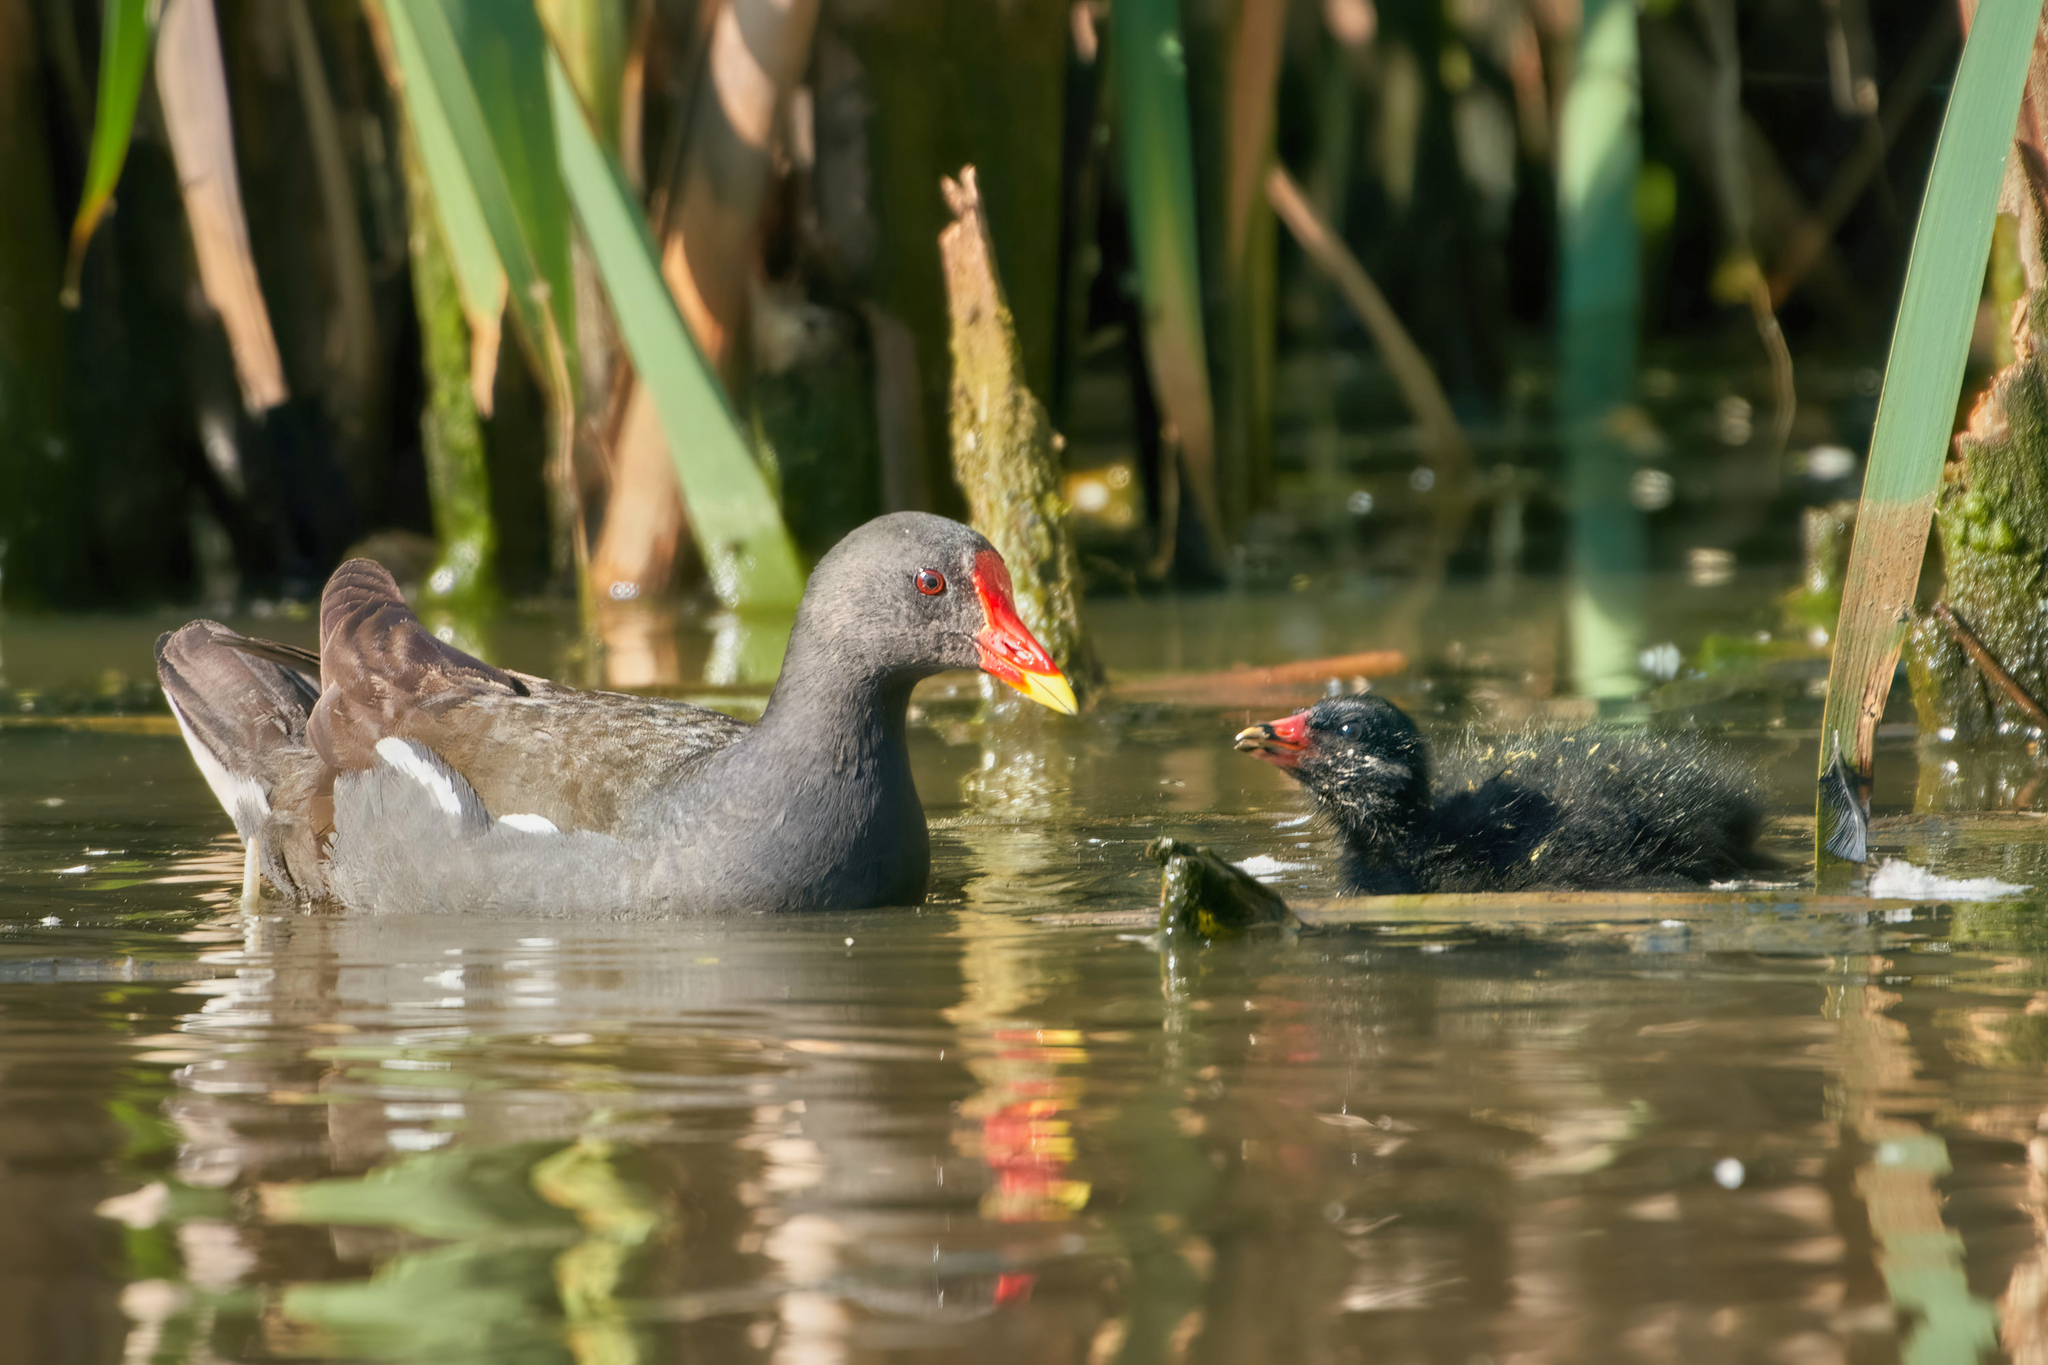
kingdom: Animalia
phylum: Chordata
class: Aves
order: Gruiformes
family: Rallidae
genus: Gallinula
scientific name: Gallinula chloropus
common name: Common moorhen
